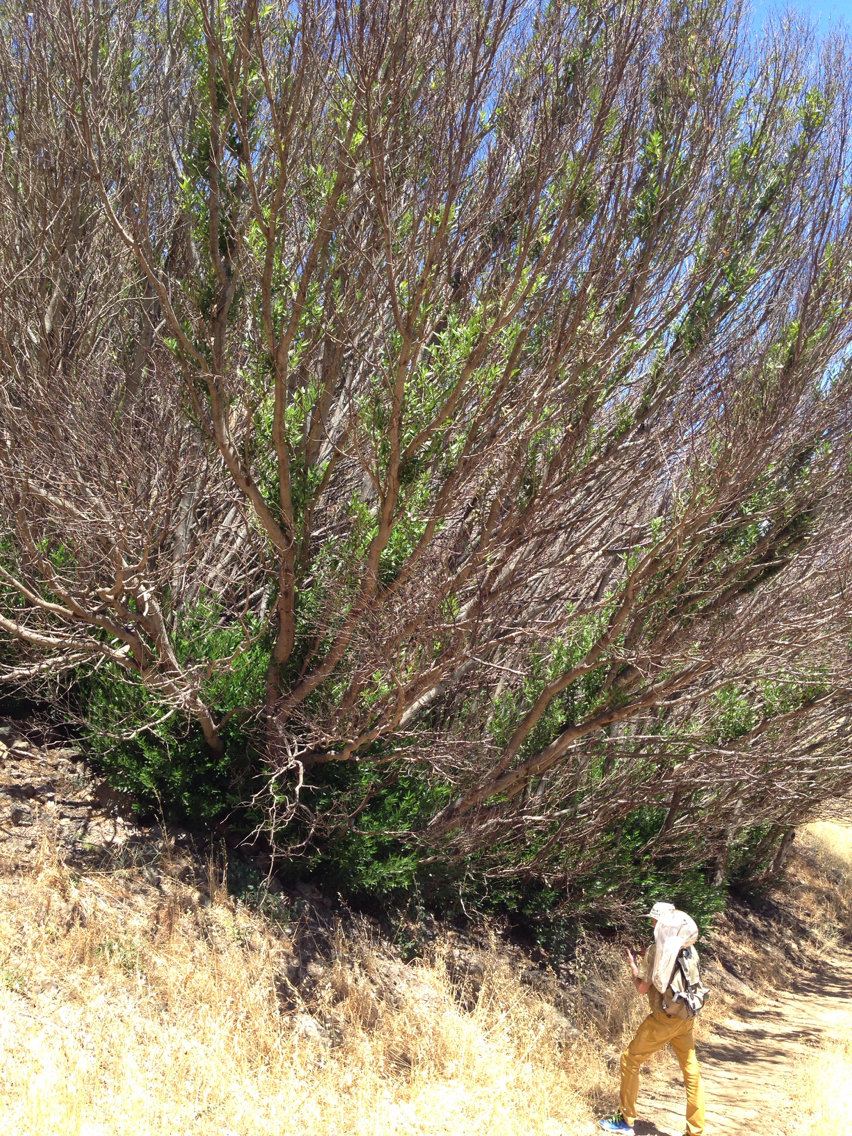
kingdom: Plantae
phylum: Tracheophyta
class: Magnoliopsida
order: Laurales
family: Lauraceae
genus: Umbellularia
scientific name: Umbellularia californica
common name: California bay
